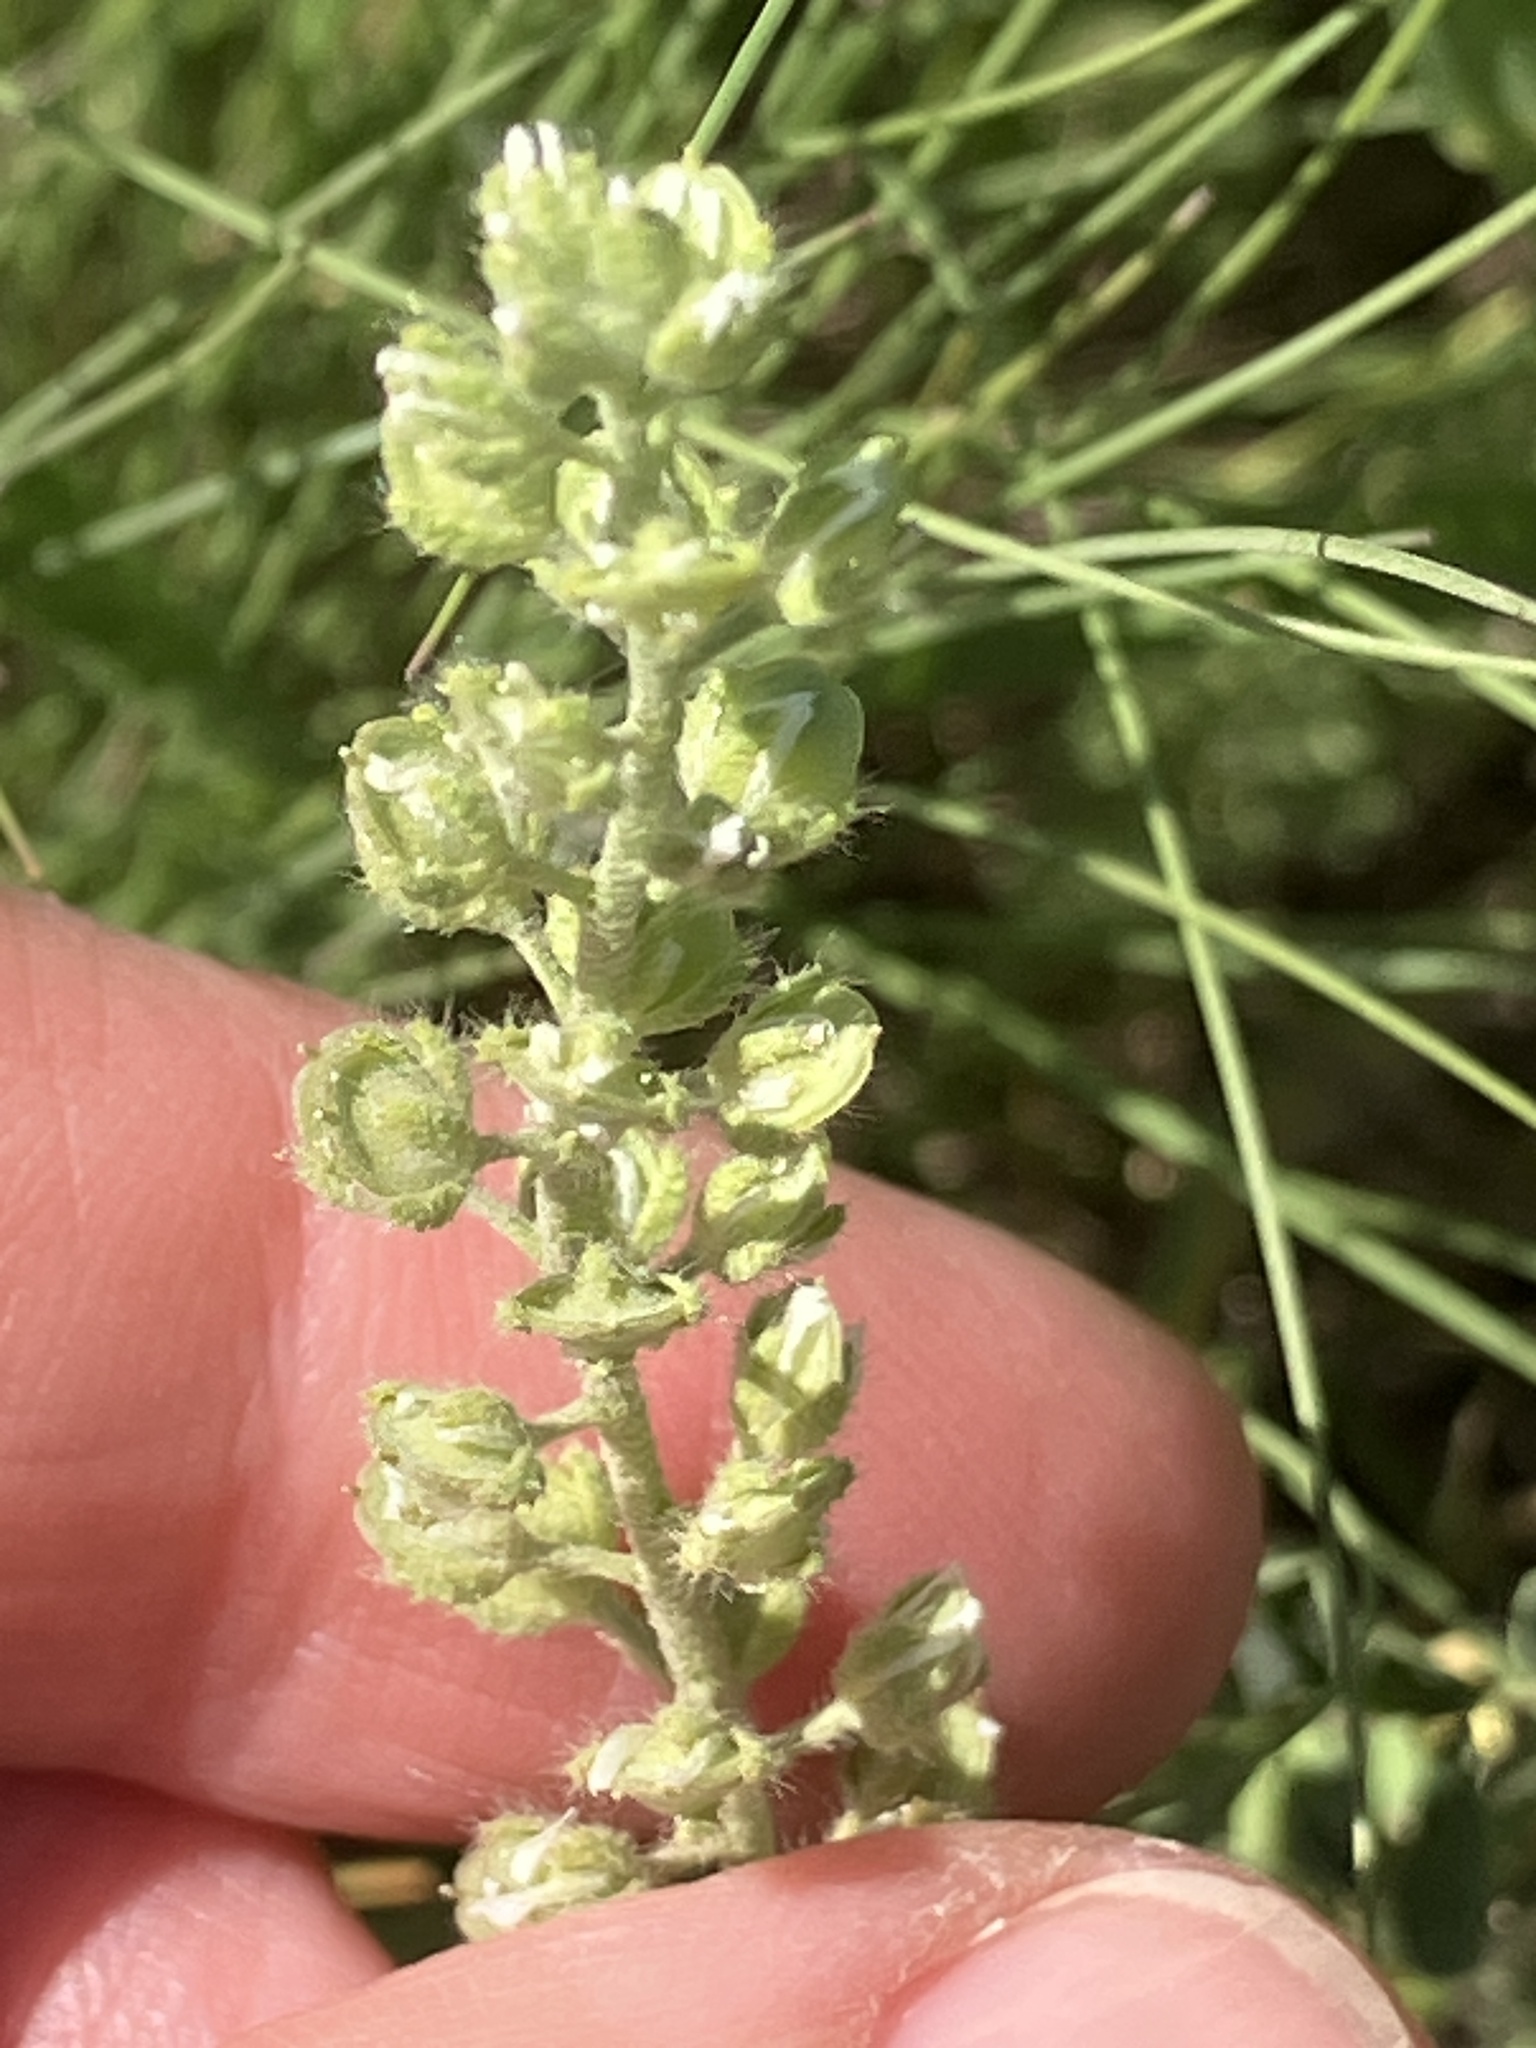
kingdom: Plantae
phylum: Tracheophyta
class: Magnoliopsida
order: Brassicales
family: Brassicaceae
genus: Alyssum
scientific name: Alyssum alyssoides
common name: Small alison
